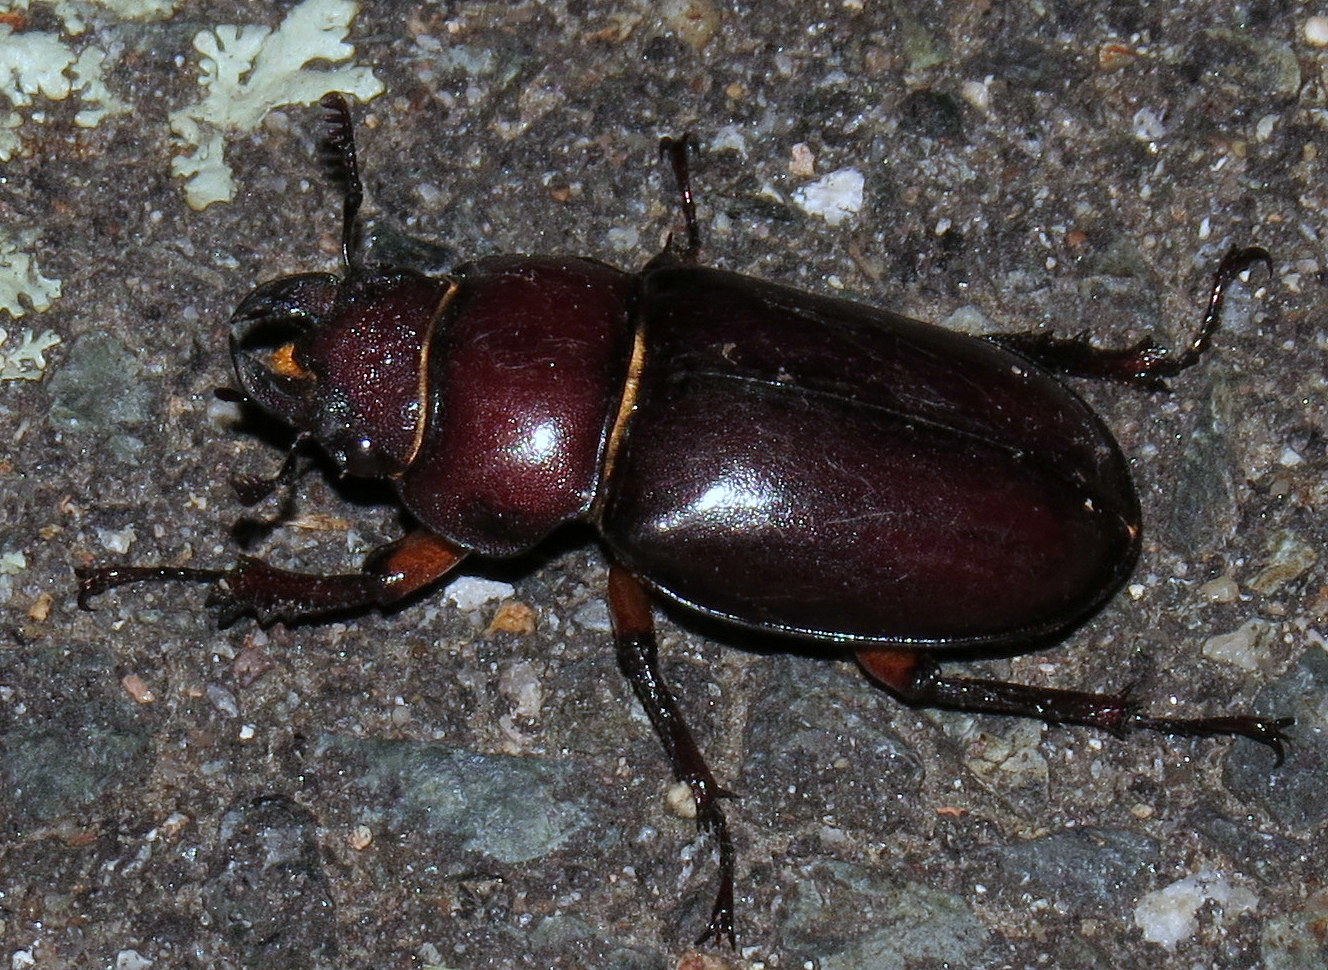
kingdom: Animalia
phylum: Arthropoda
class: Insecta
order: Coleoptera
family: Lucanidae
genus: Lucanus
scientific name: Lucanus capreolus
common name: Stag beetle
